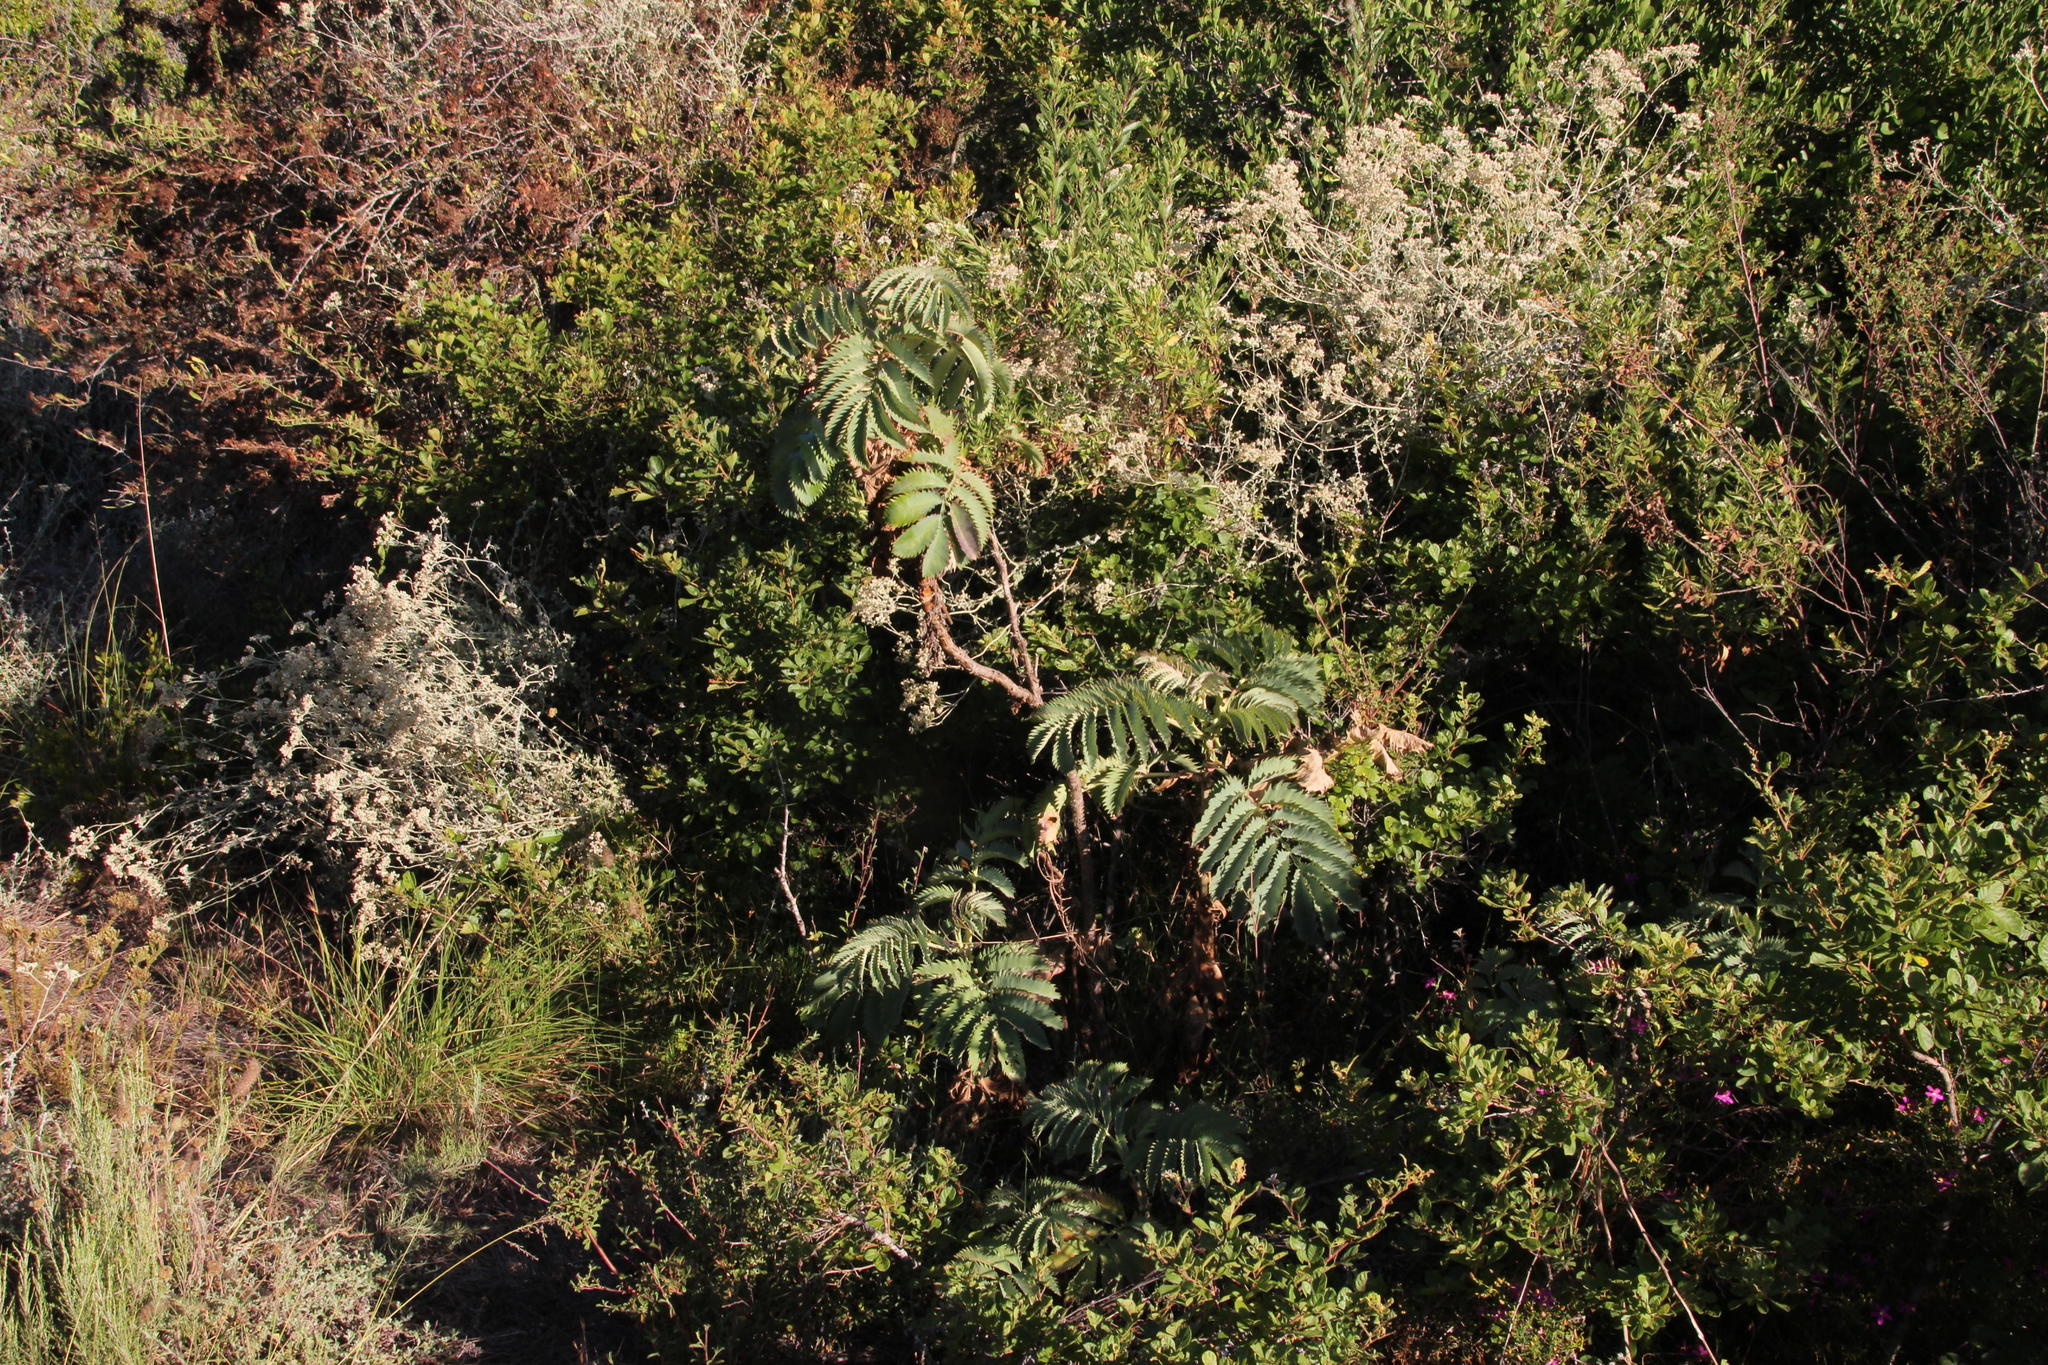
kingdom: Plantae
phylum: Tracheophyta
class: Magnoliopsida
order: Geraniales
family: Melianthaceae
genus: Melianthus
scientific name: Melianthus major
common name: Honey-flower
